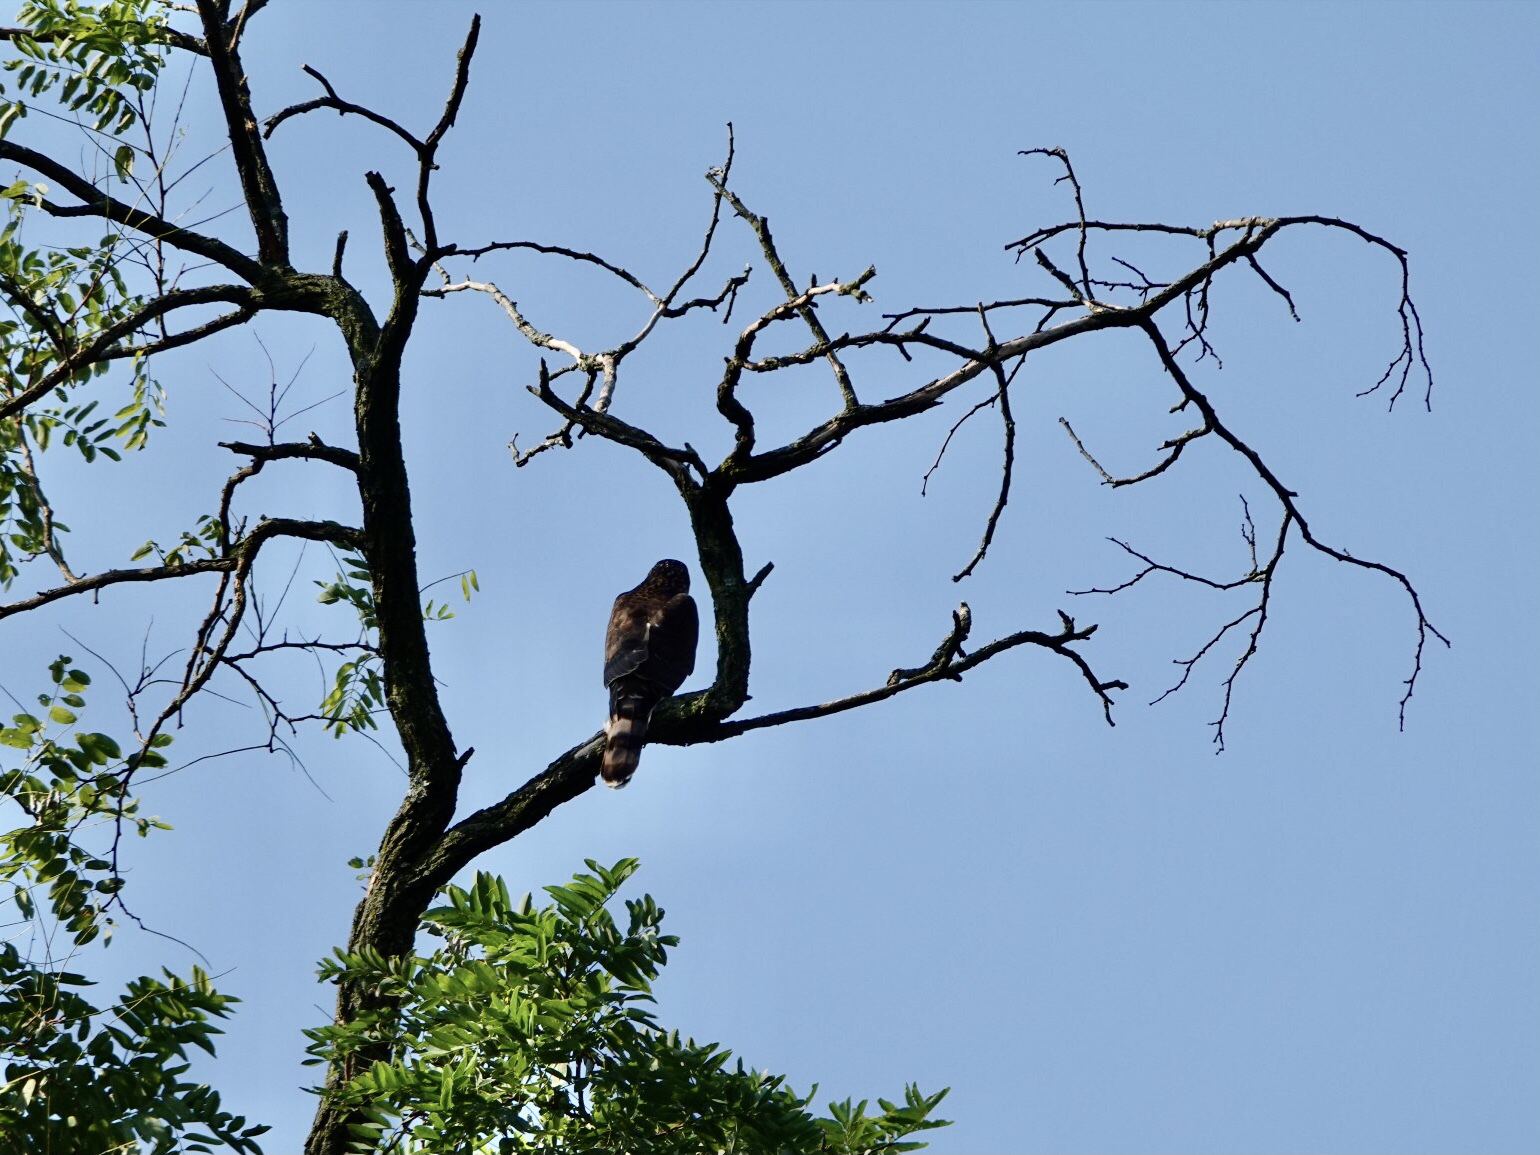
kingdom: Animalia
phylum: Chordata
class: Aves
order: Accipitriformes
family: Accipitridae
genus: Accipiter
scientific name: Accipiter cooperii
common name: Cooper's hawk
